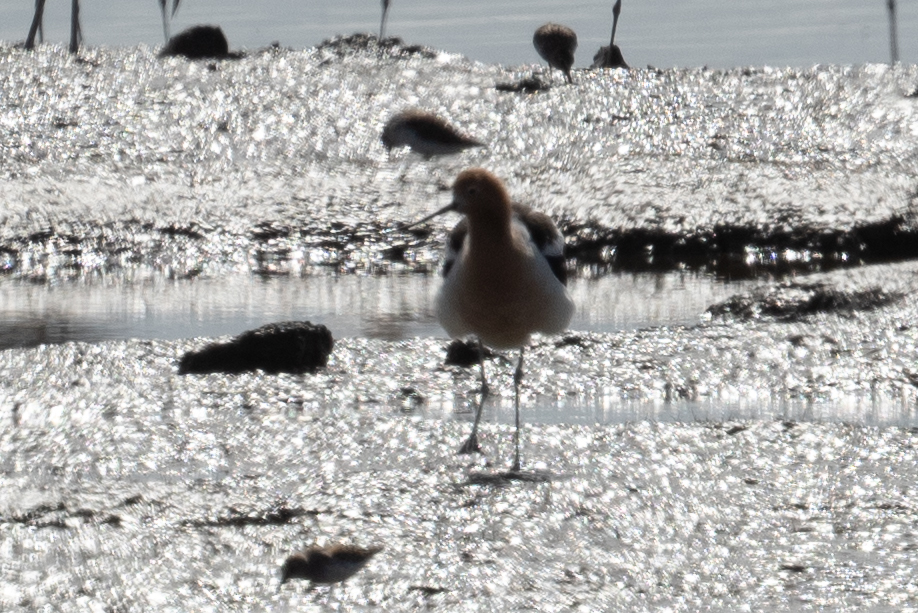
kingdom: Animalia
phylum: Chordata
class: Aves
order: Charadriiformes
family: Recurvirostridae
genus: Recurvirostra
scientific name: Recurvirostra americana
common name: American avocet
